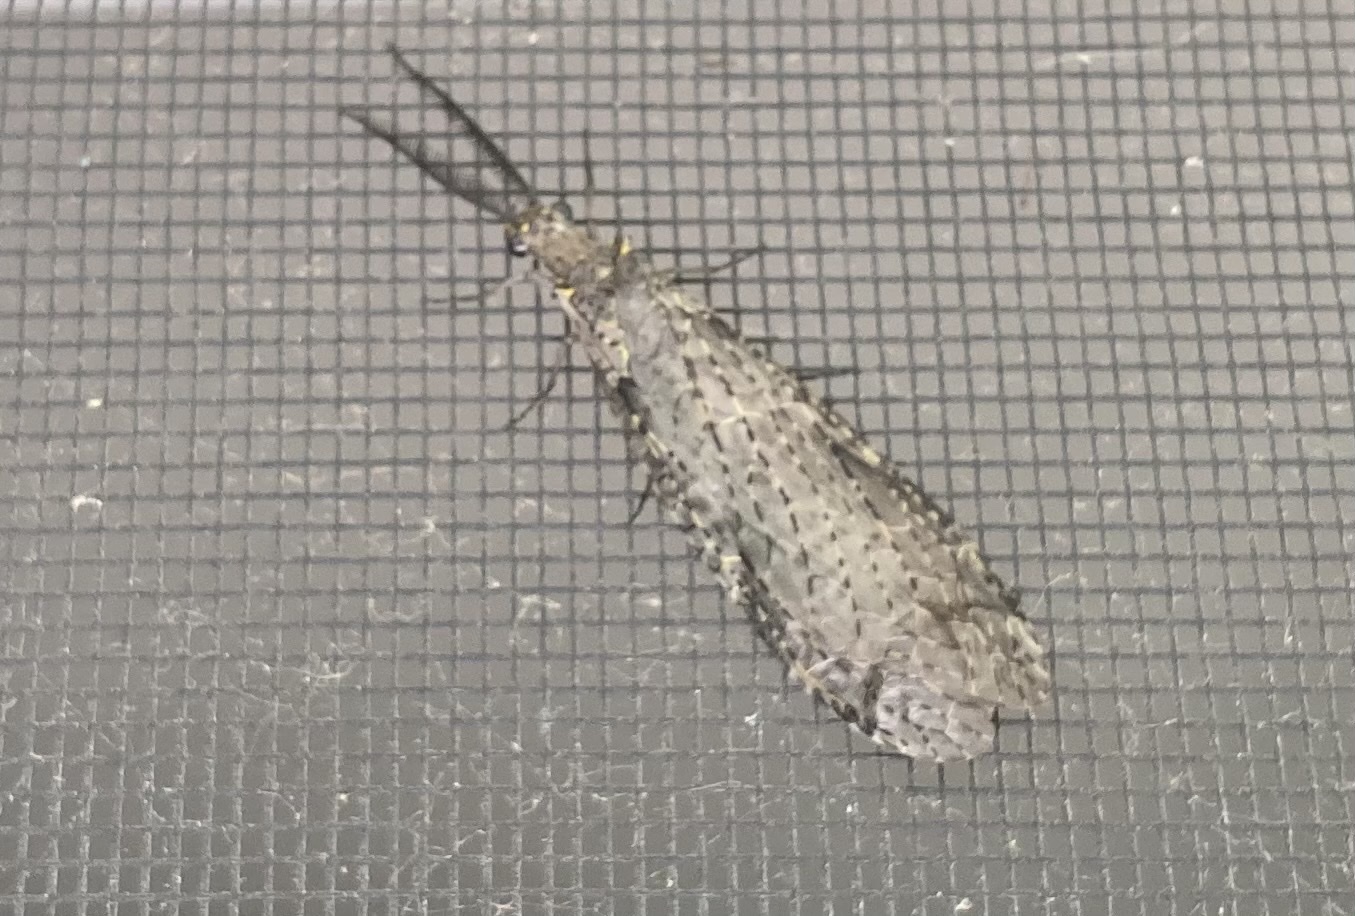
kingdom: Animalia
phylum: Arthropoda
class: Insecta
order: Megaloptera
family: Corydalidae
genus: Chauliodes
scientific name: Chauliodes rastricornis
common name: Spring fishfly
